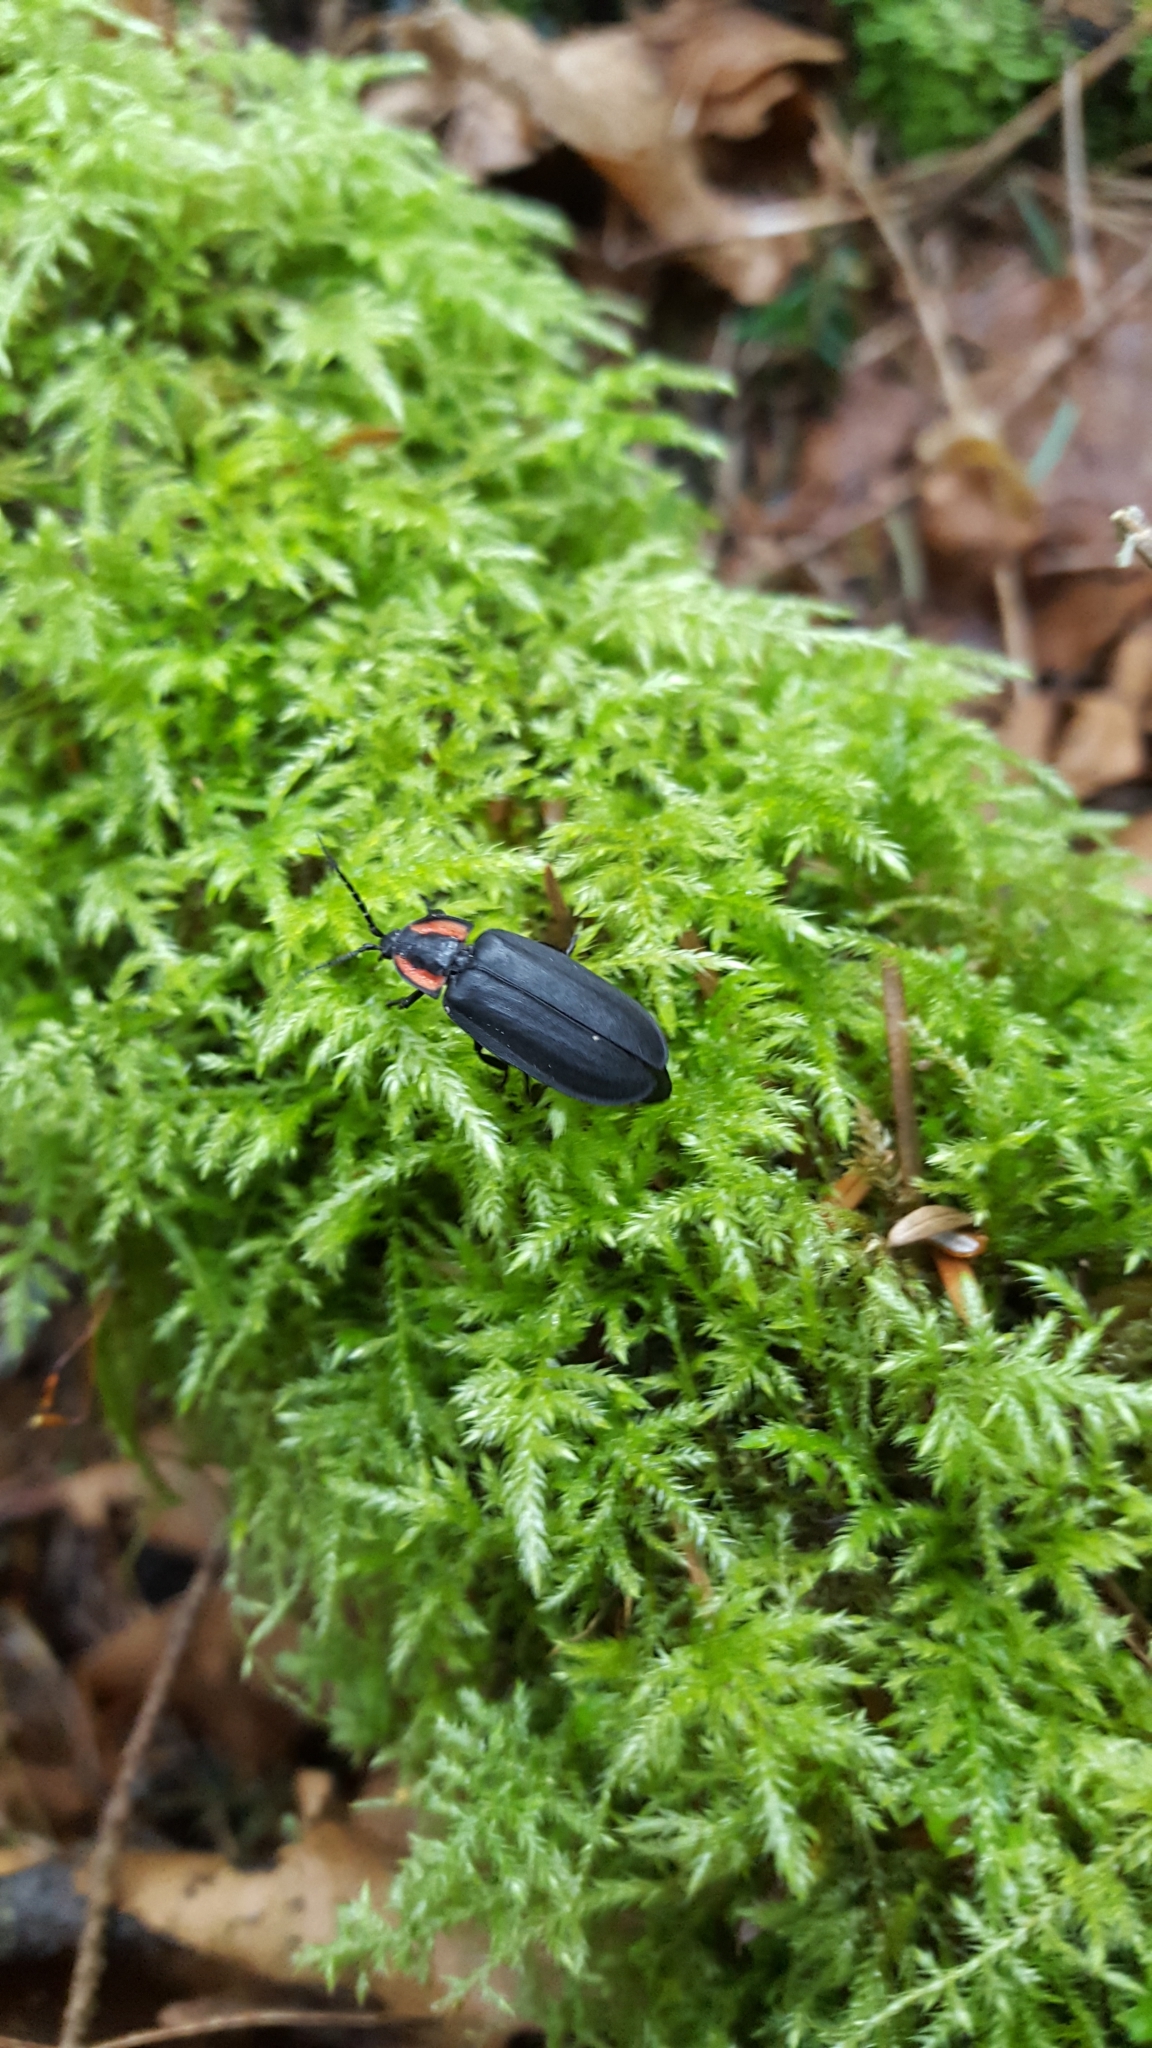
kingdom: Animalia
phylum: Arthropoda
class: Insecta
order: Coleoptera
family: Lampyridae
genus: Photinus
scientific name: Photinus corrusca
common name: Winter firefly
